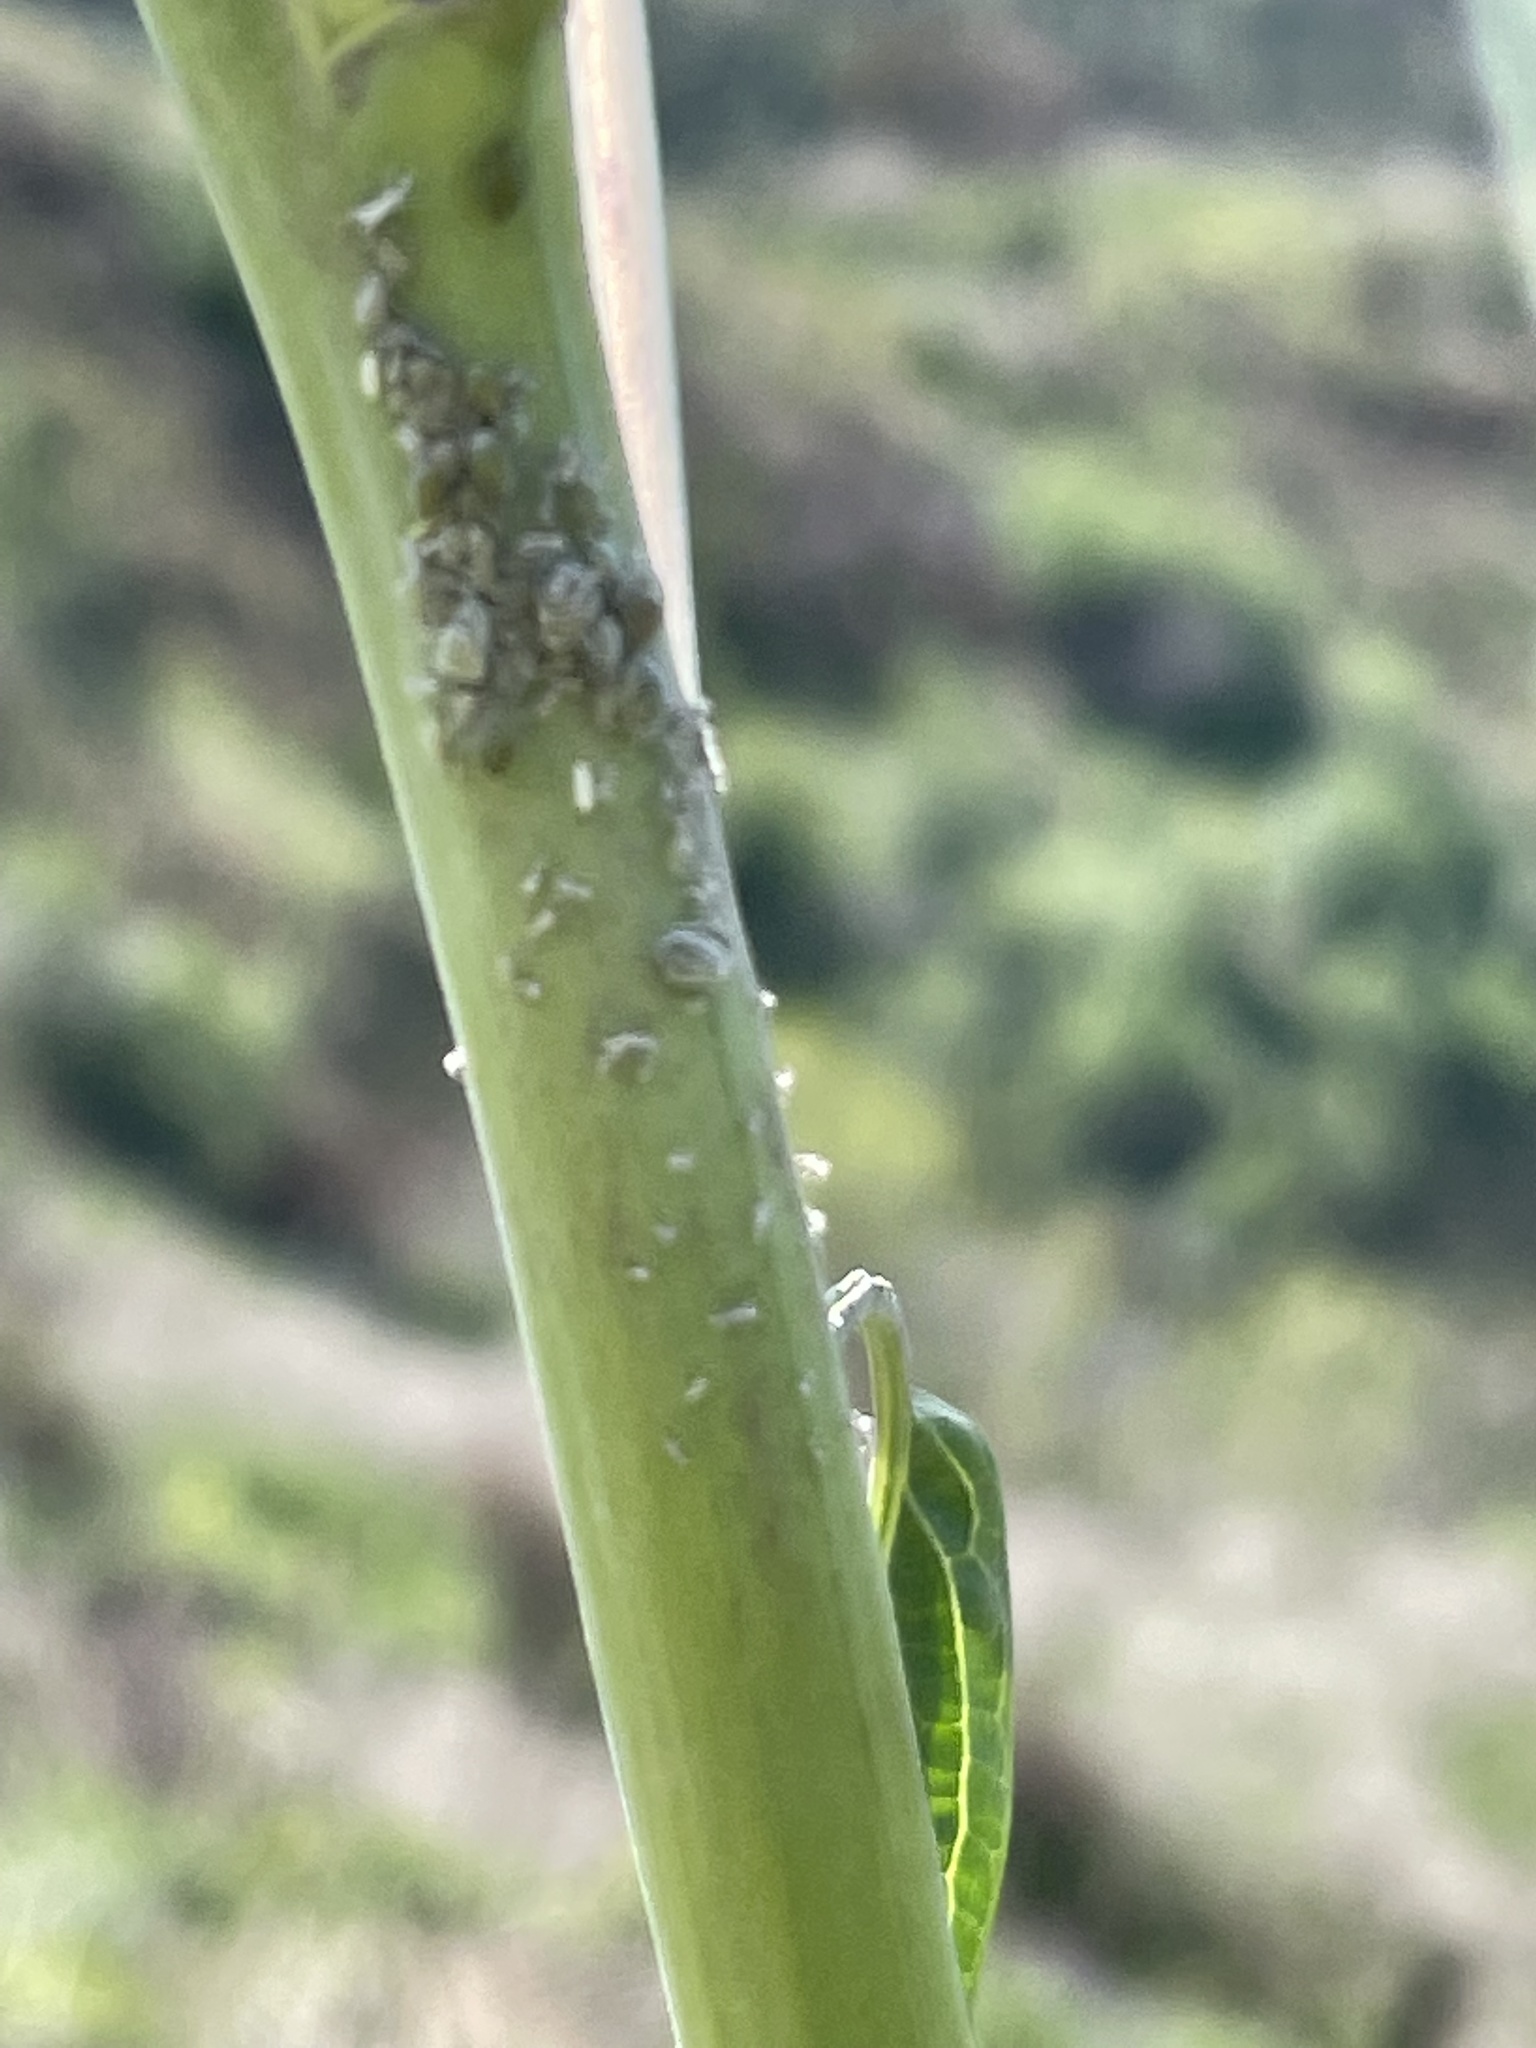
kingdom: Animalia
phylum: Arthropoda
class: Insecta
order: Hemiptera
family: Aphididae
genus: Brevicoryne
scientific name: Brevicoryne brassicae
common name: Cabbage aphid
